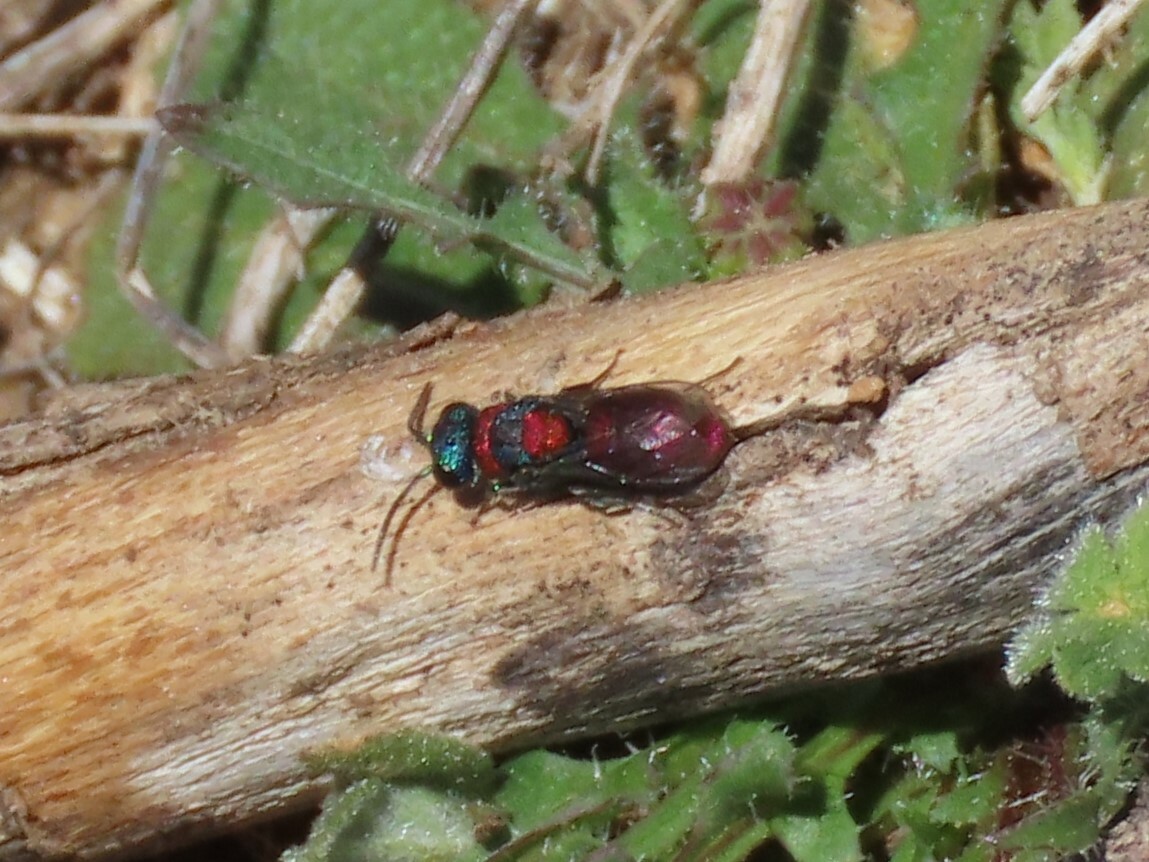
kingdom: Animalia
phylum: Arthropoda
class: Insecta
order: Hymenoptera
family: Chrysididae
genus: Pseudochrysis
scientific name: Pseudochrysis uniformis
